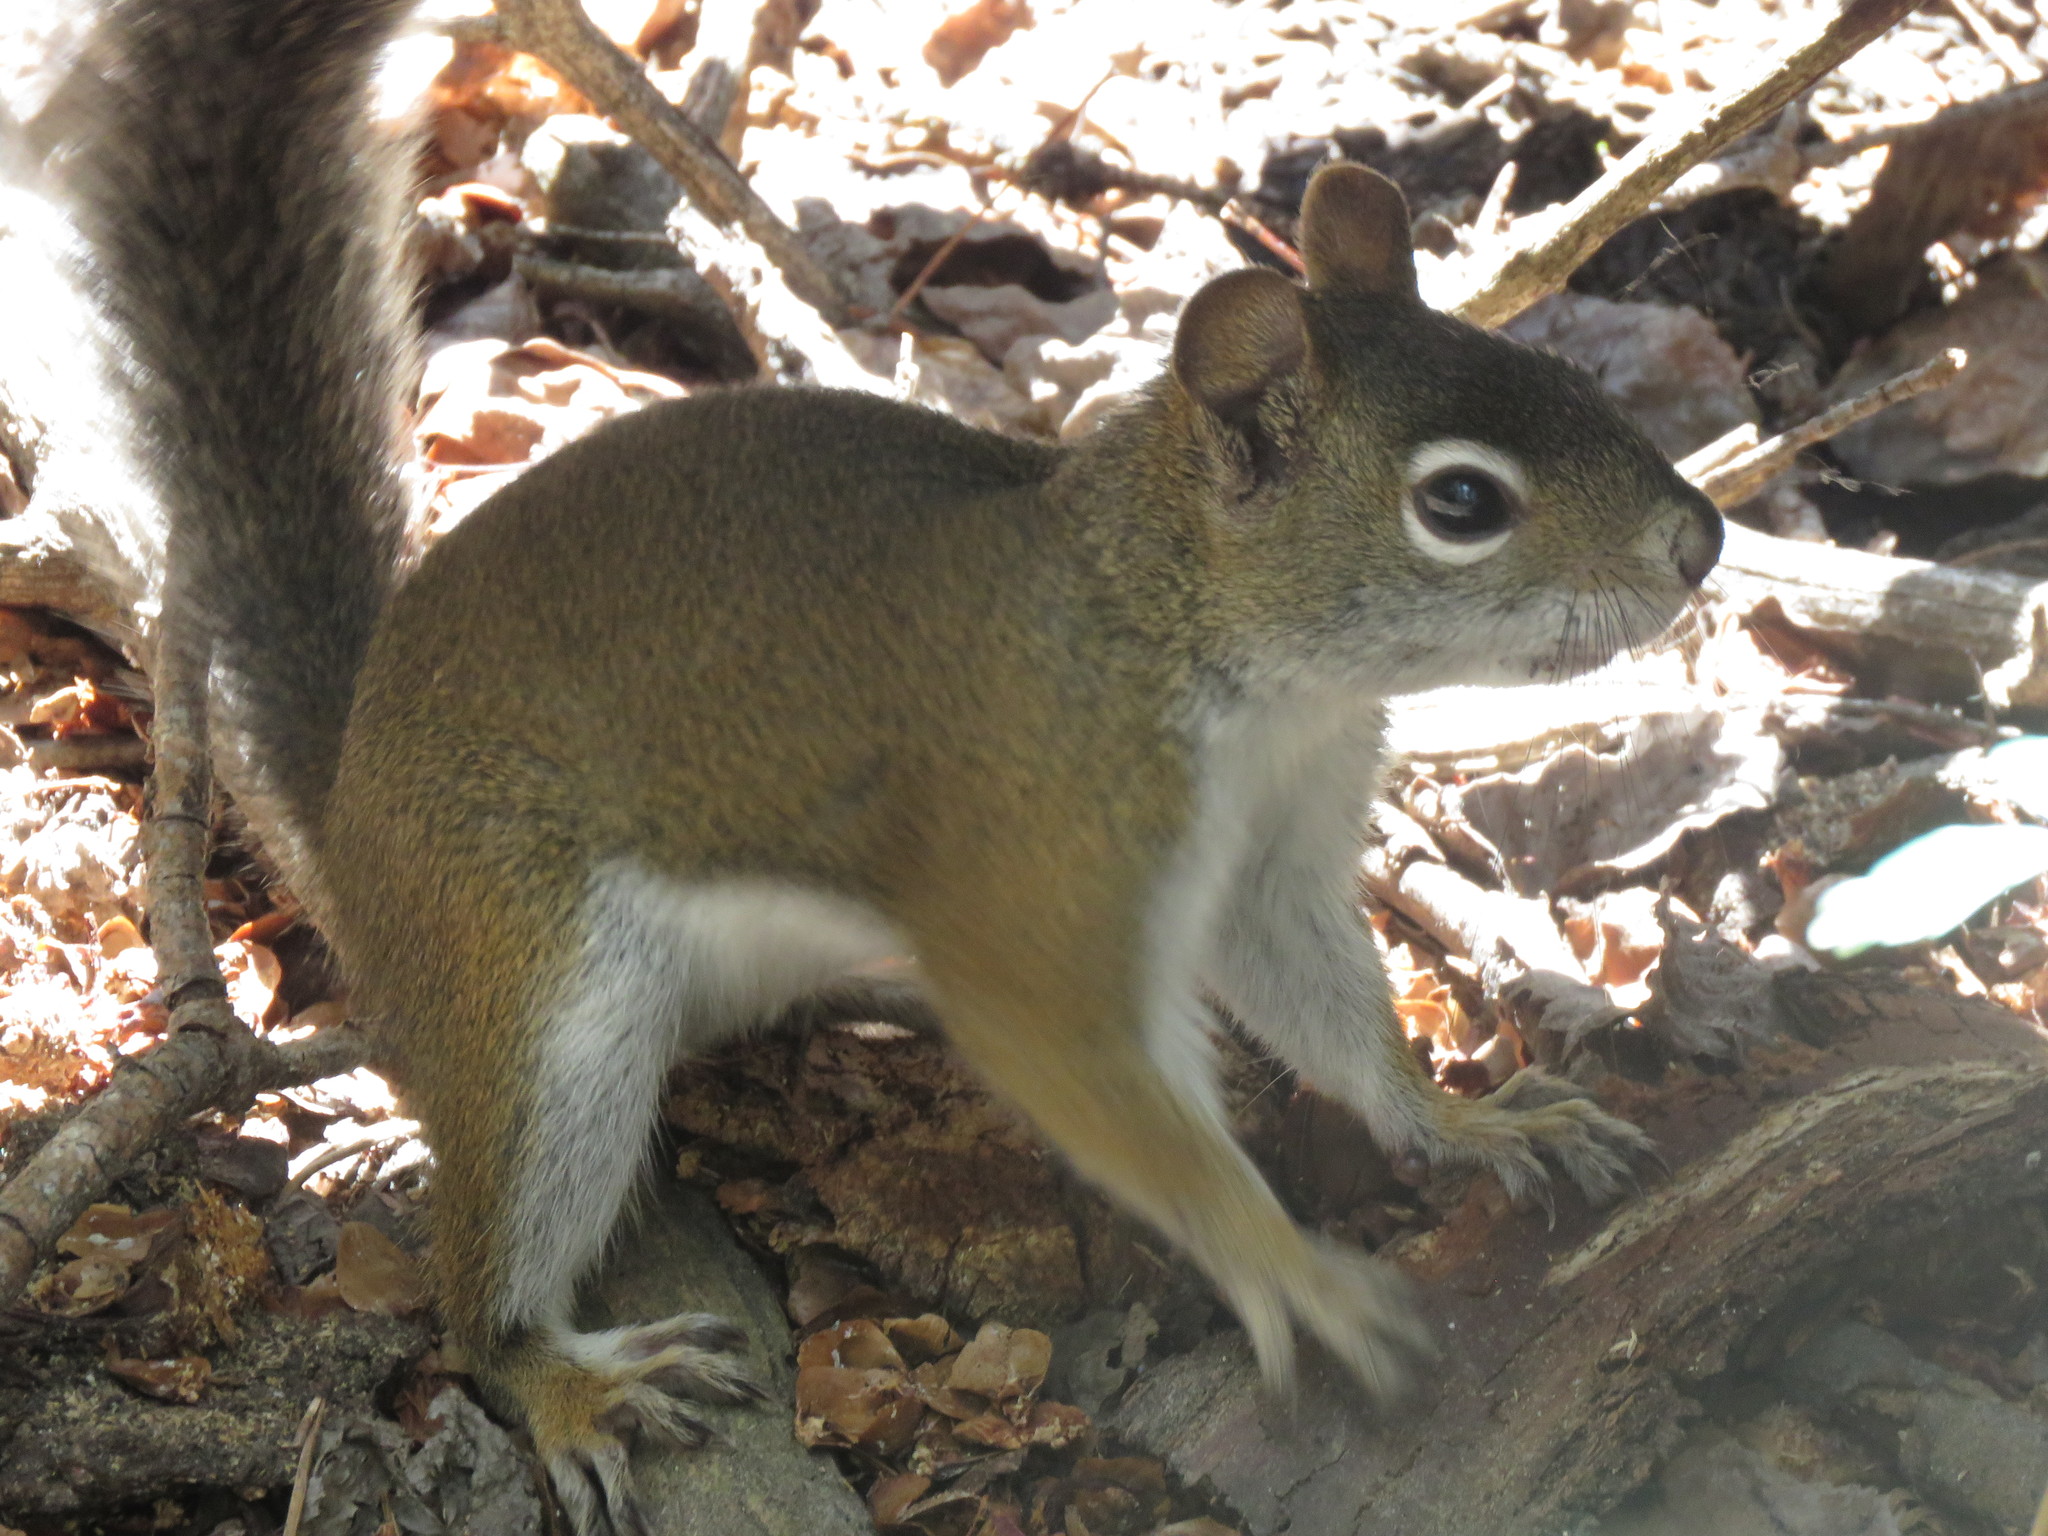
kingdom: Animalia
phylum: Chordata
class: Mammalia
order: Rodentia
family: Sciuridae
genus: Tamiasciurus
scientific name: Tamiasciurus hudsonicus
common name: Red squirrel
